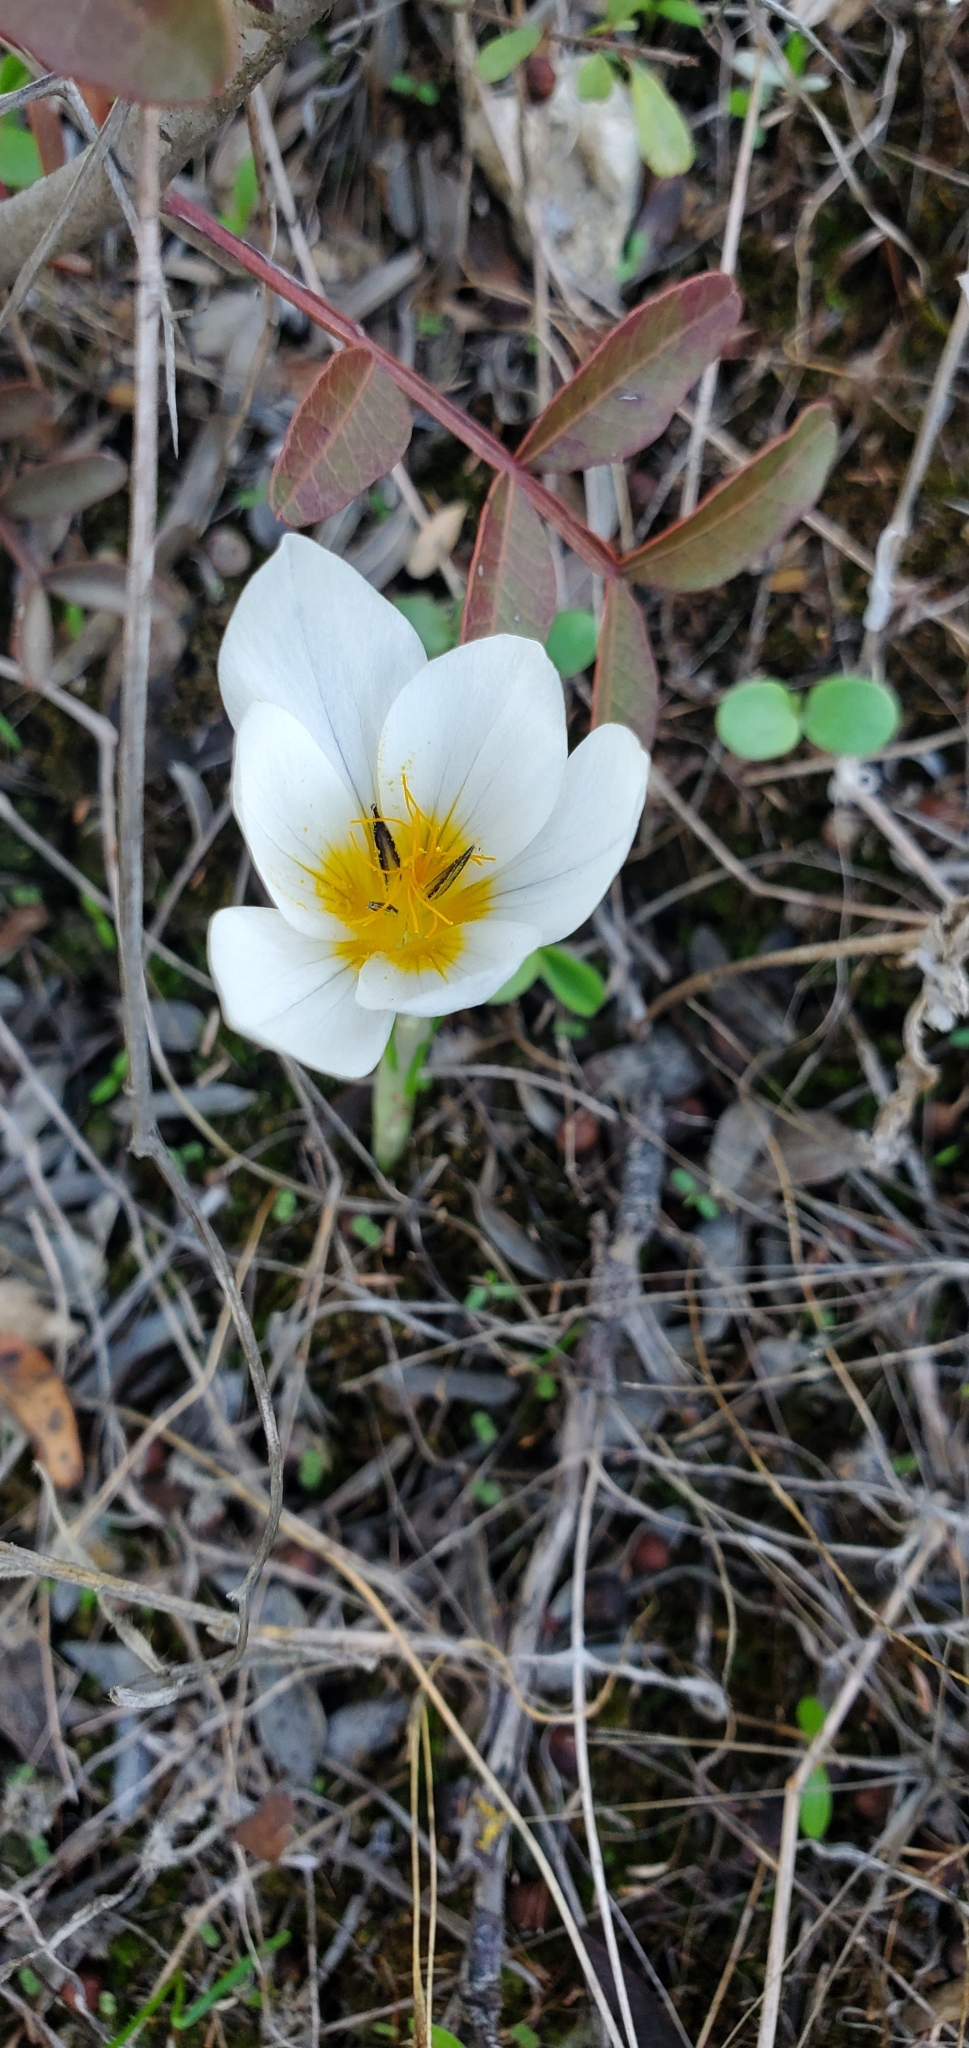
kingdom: Plantae
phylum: Tracheophyta
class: Liliopsida
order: Asparagales
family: Iridaceae
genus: Crocus
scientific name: Crocus hyemalis
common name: Winter crocus
